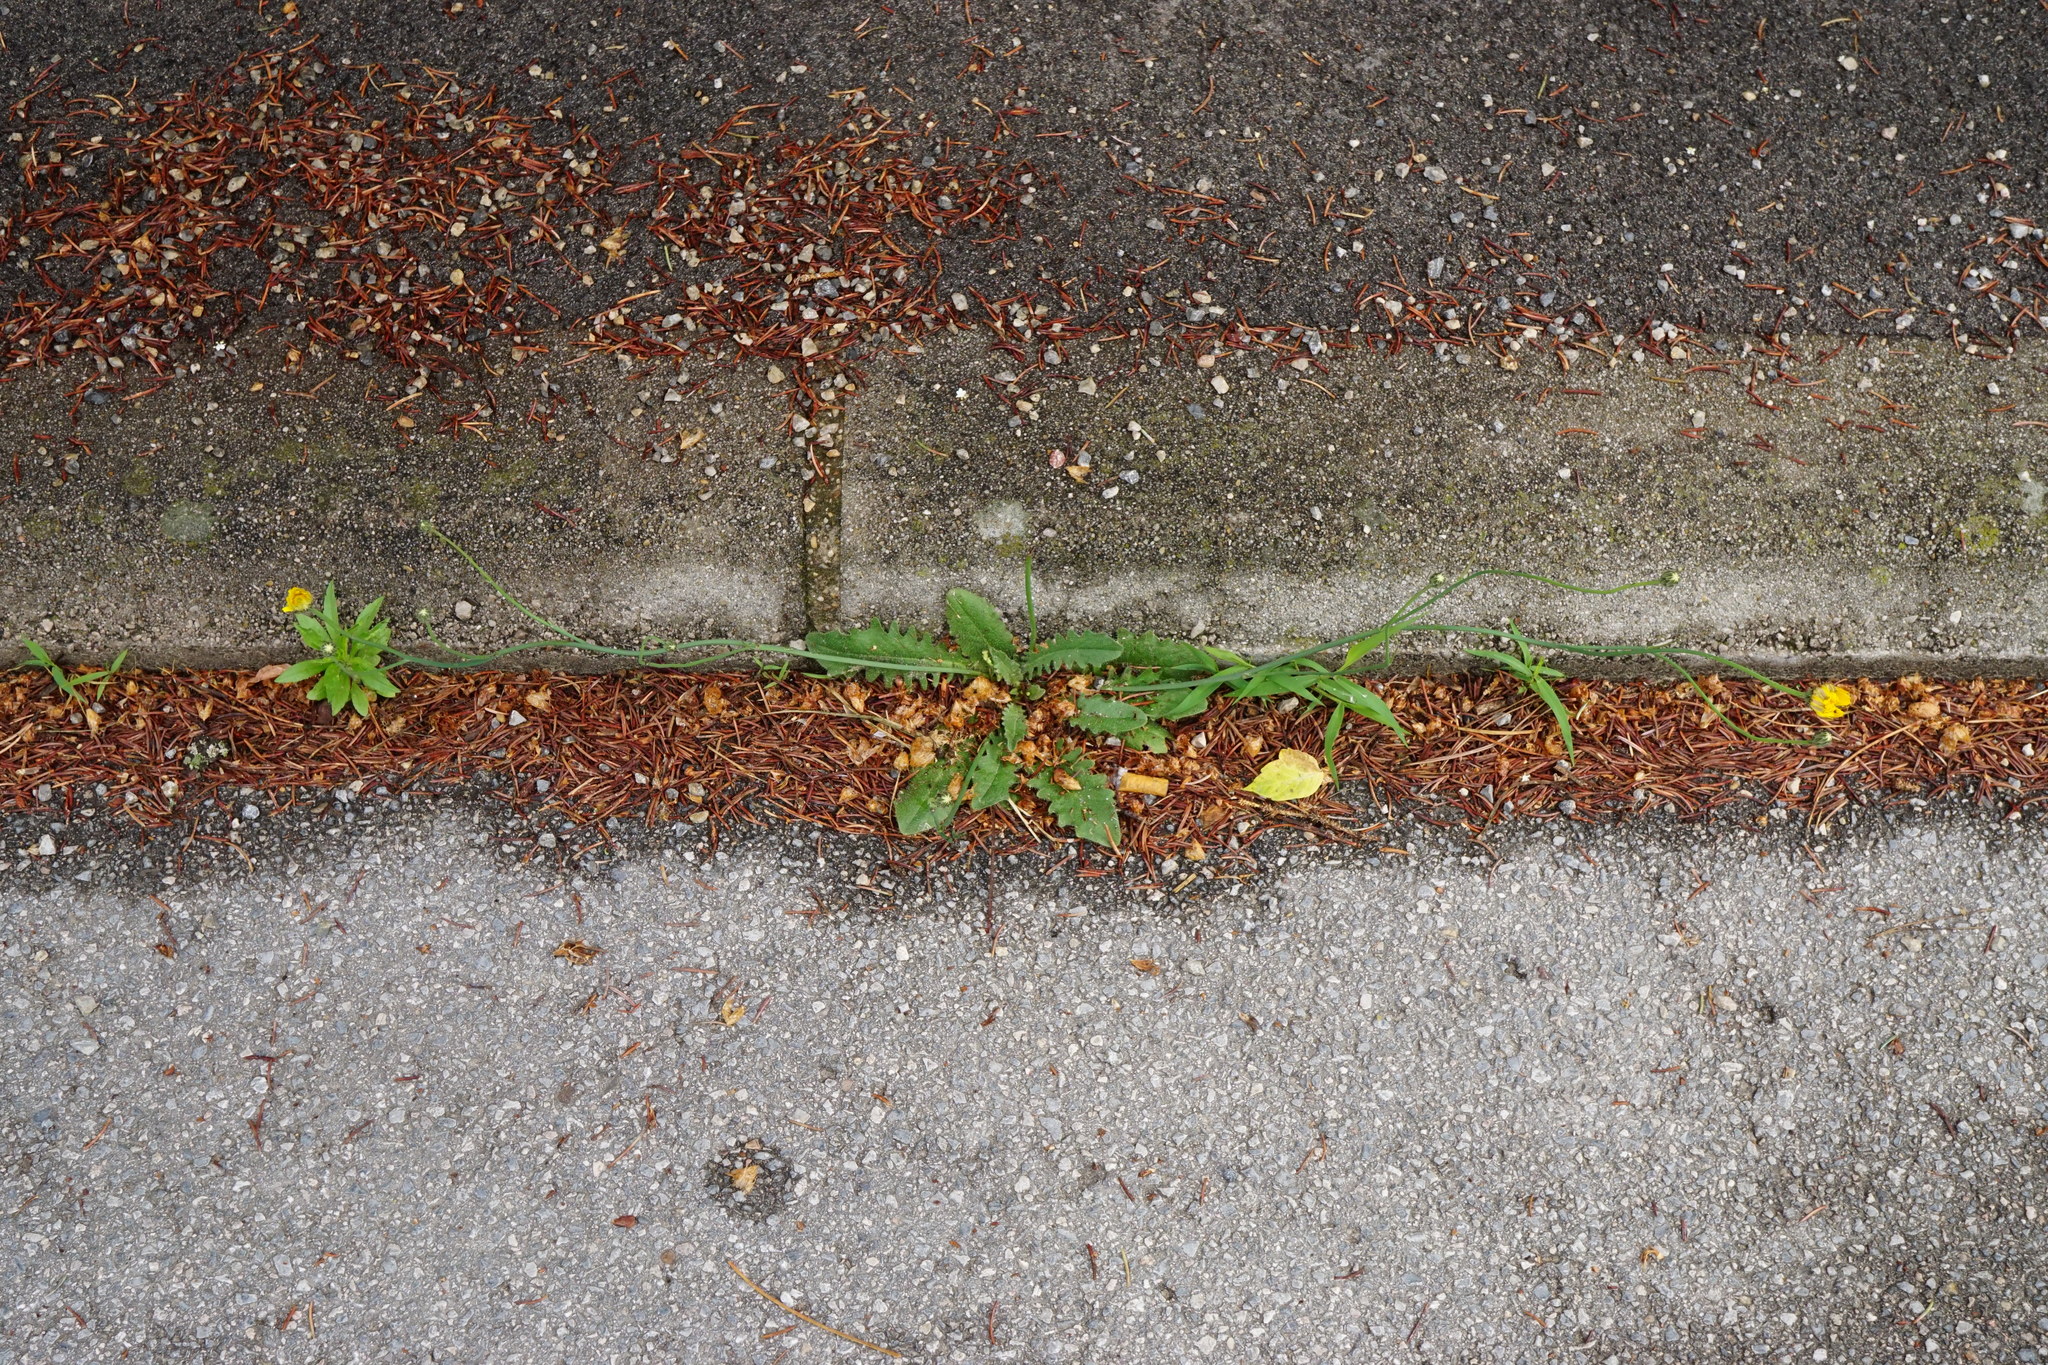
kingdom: Plantae
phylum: Tracheophyta
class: Magnoliopsida
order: Asterales
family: Asteraceae
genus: Hypochaeris
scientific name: Hypochaeris radicata
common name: Flatweed
